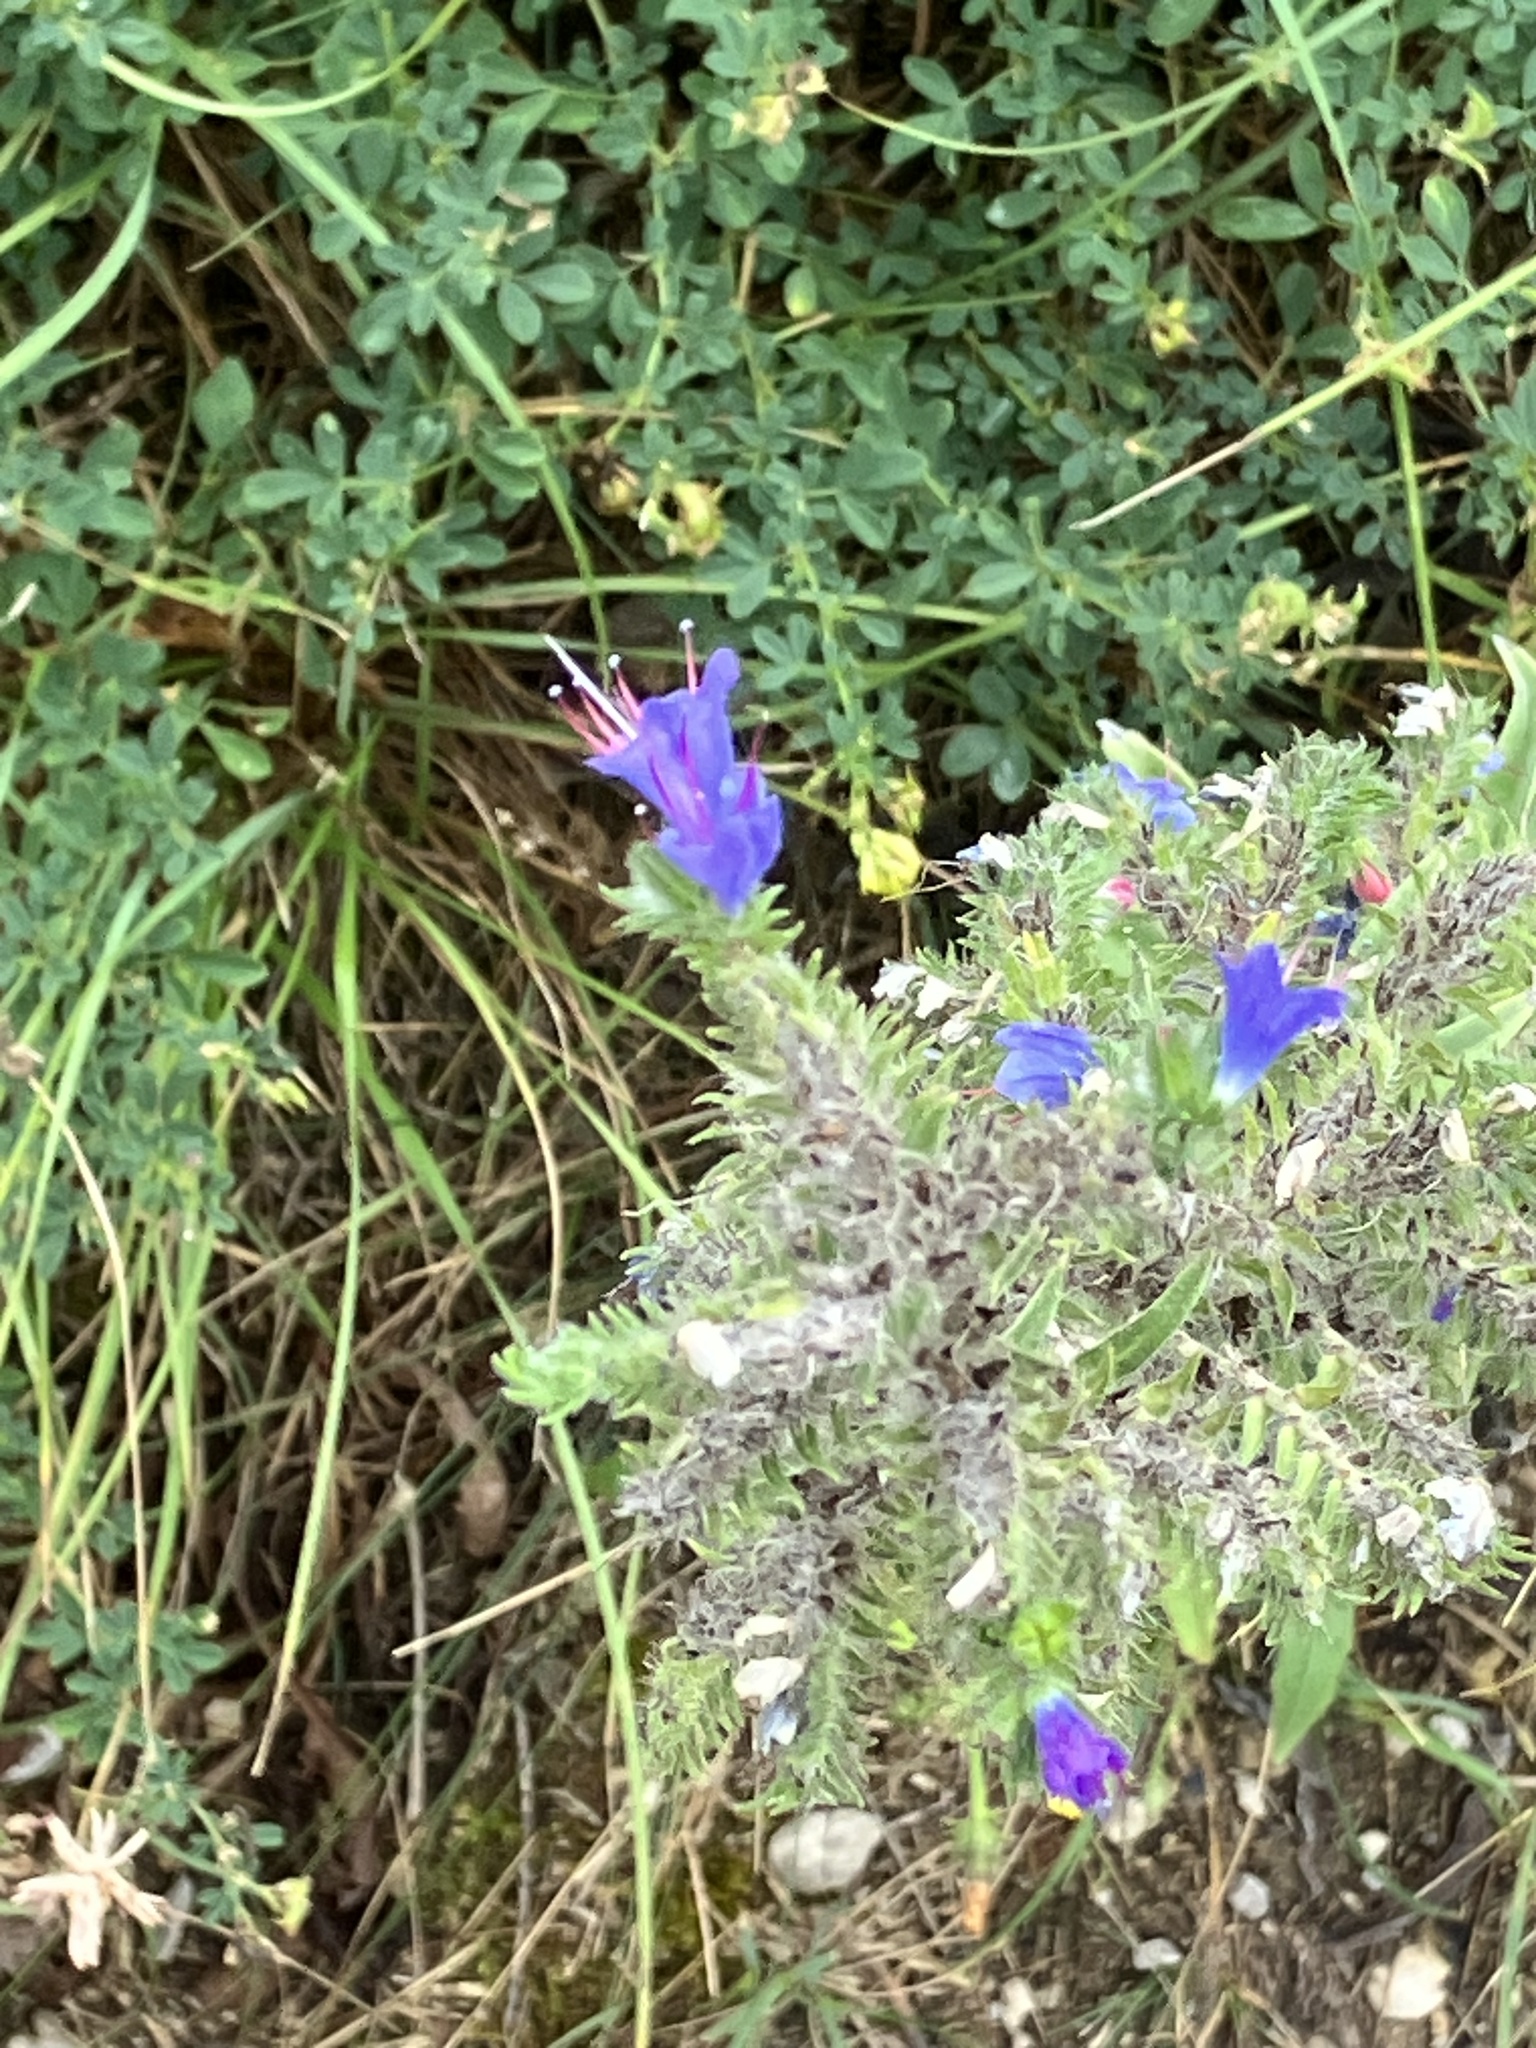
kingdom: Plantae
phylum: Tracheophyta
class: Magnoliopsida
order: Boraginales
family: Boraginaceae
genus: Echium
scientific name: Echium vulgare
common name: Common viper's bugloss
